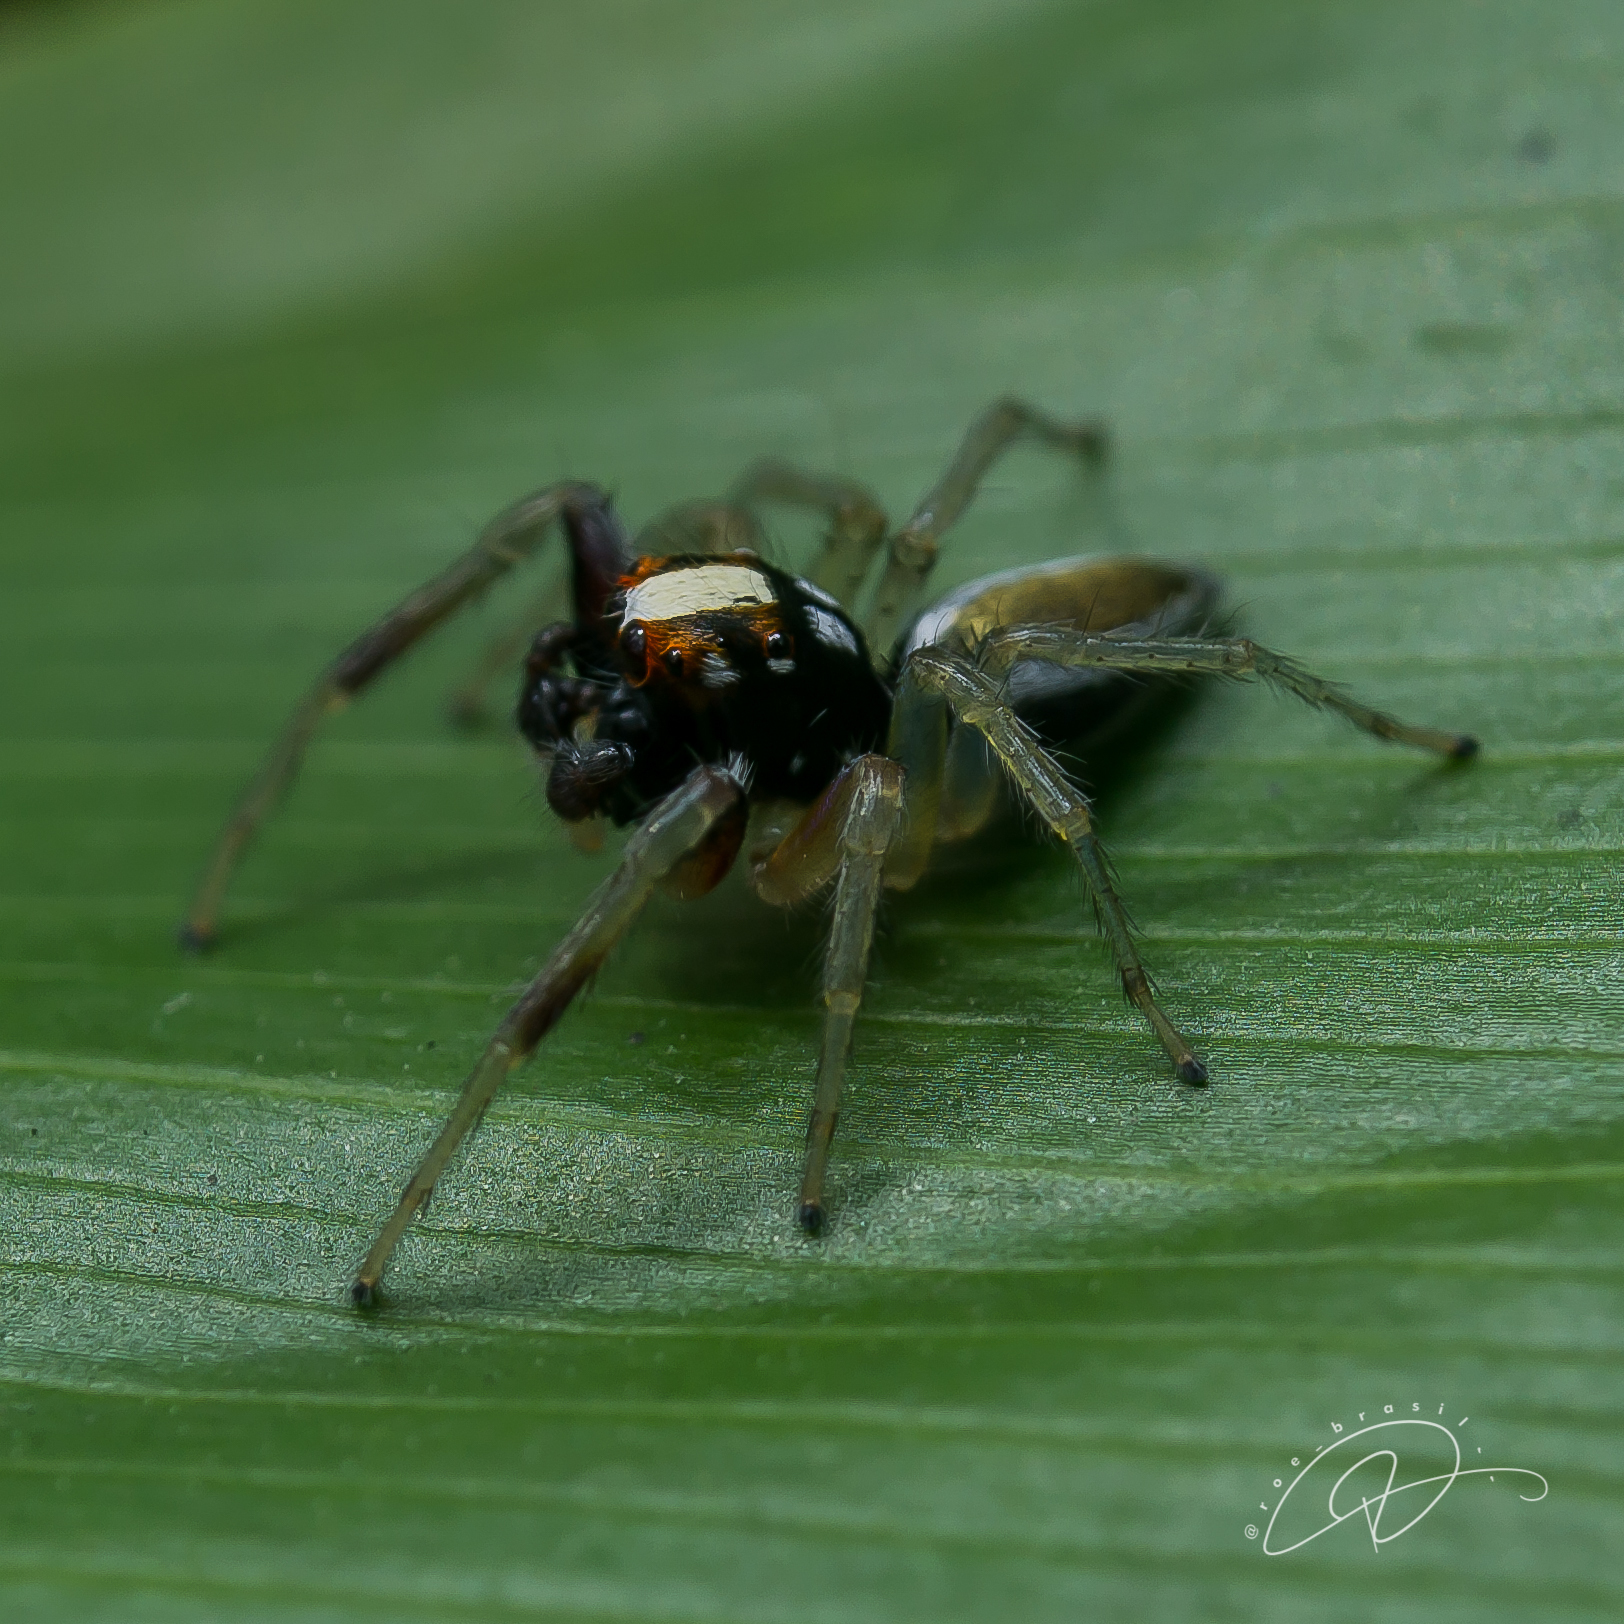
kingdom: Animalia
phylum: Arthropoda
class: Arachnida
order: Araneae
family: Salticidae
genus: Chira
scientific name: Chira spinosa
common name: Jumping spiders
